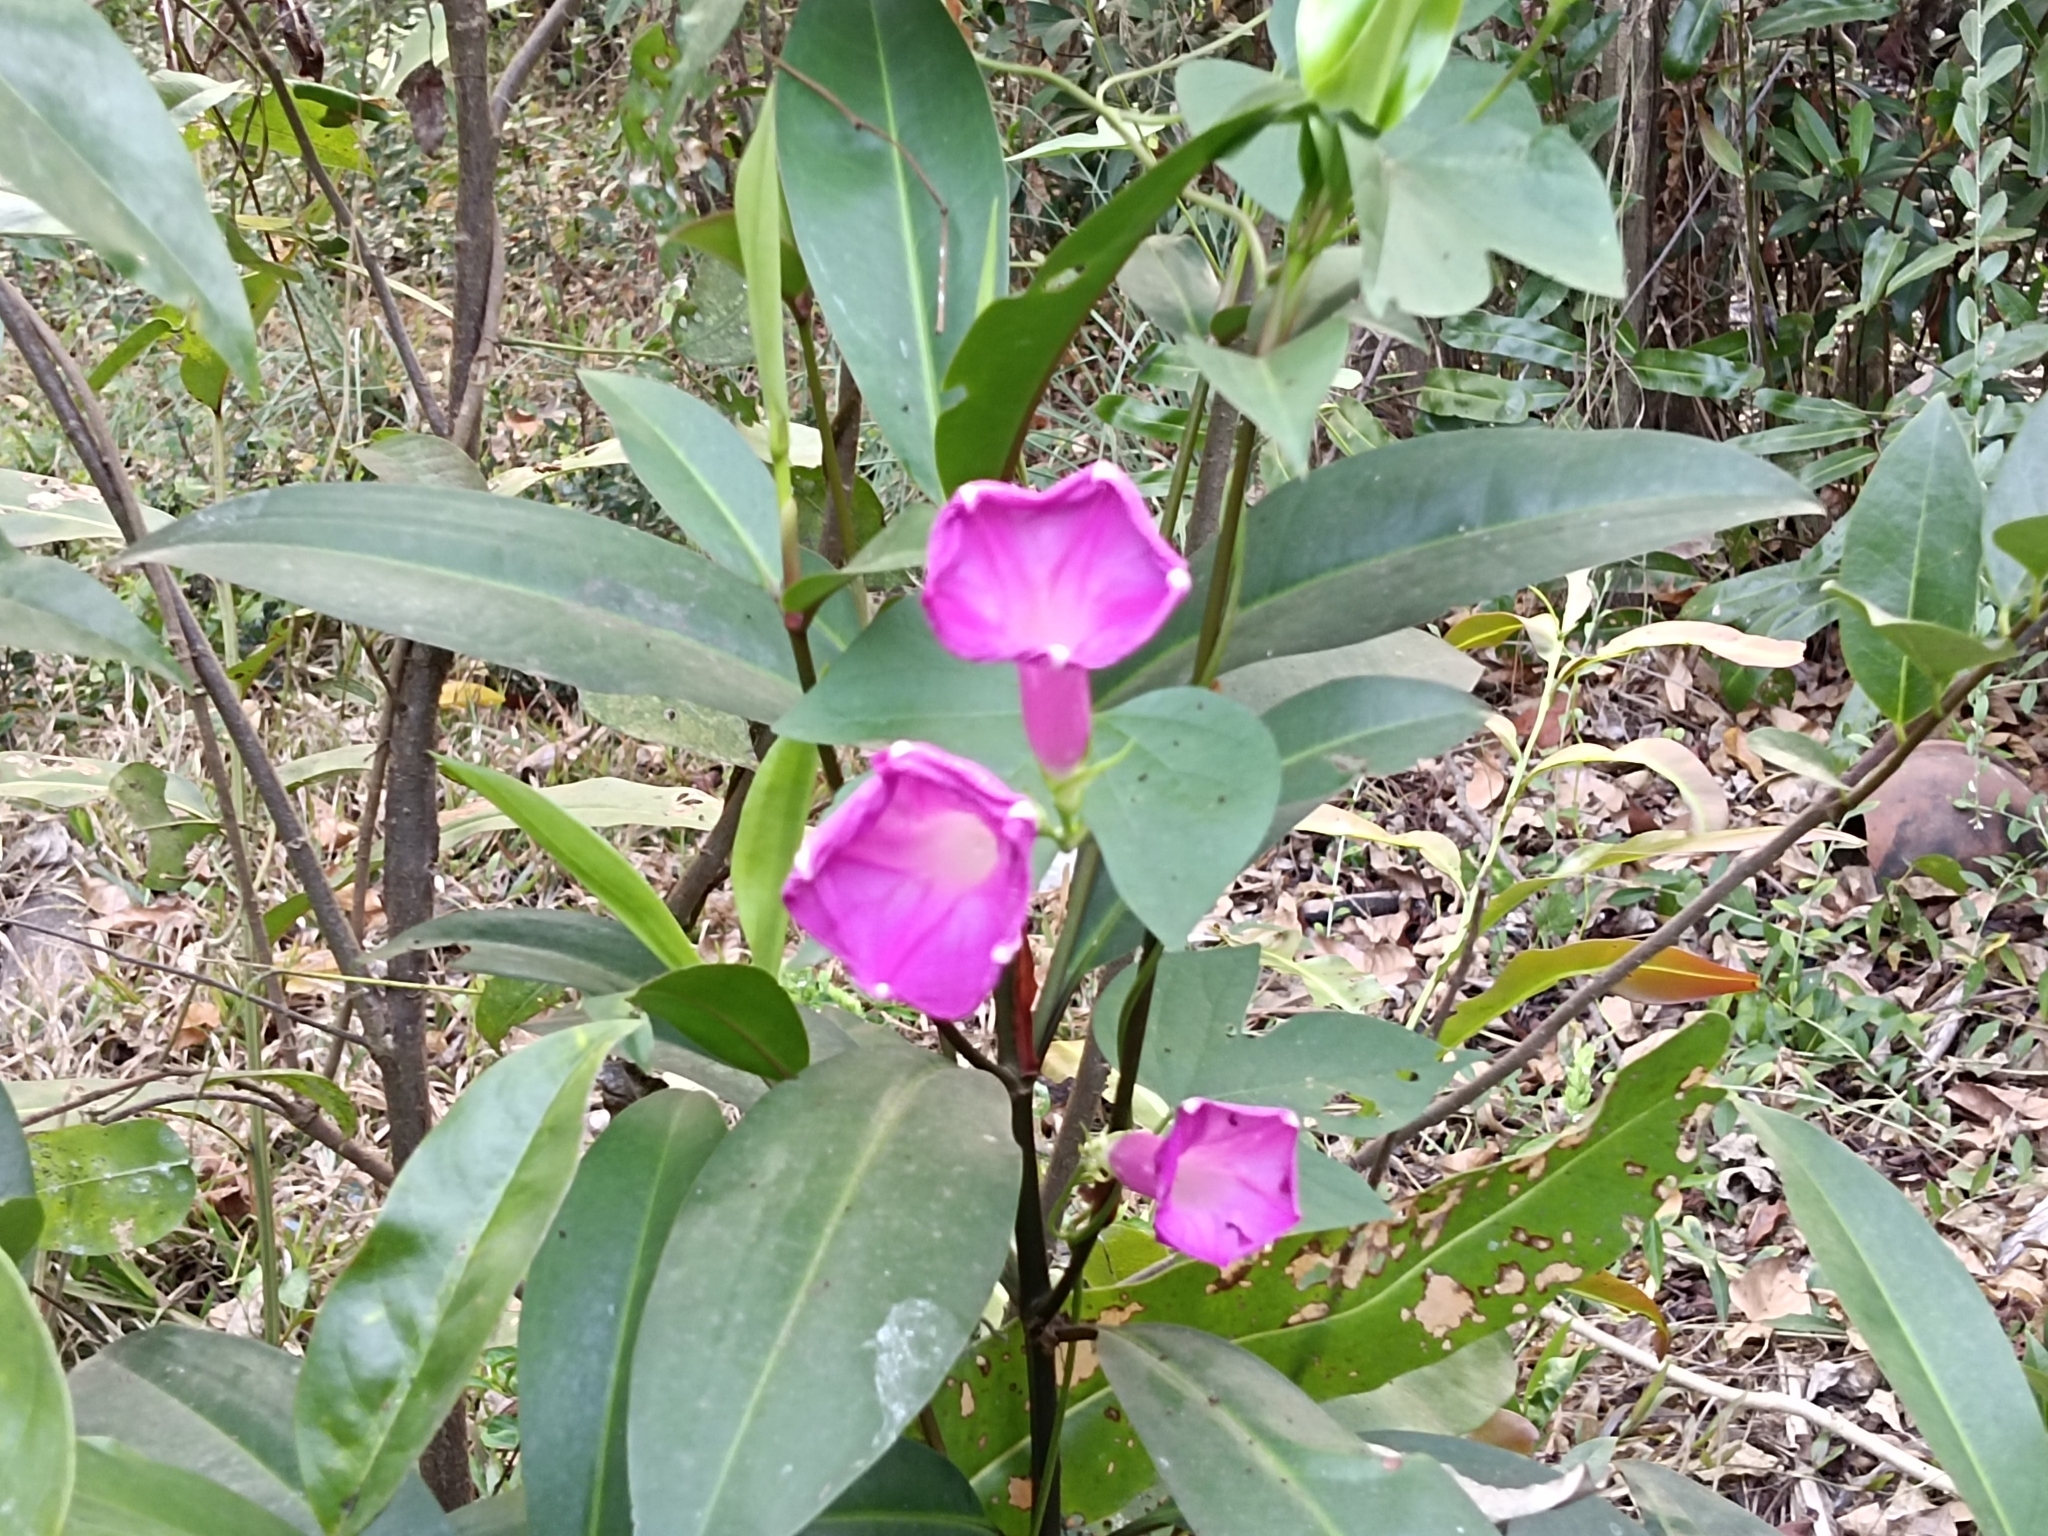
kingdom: Plantae
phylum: Tracheophyta
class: Magnoliopsida
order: Solanales
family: Convolvulaceae
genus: Ipomoea
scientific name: Ipomoea indica
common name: Blue dawnflower
